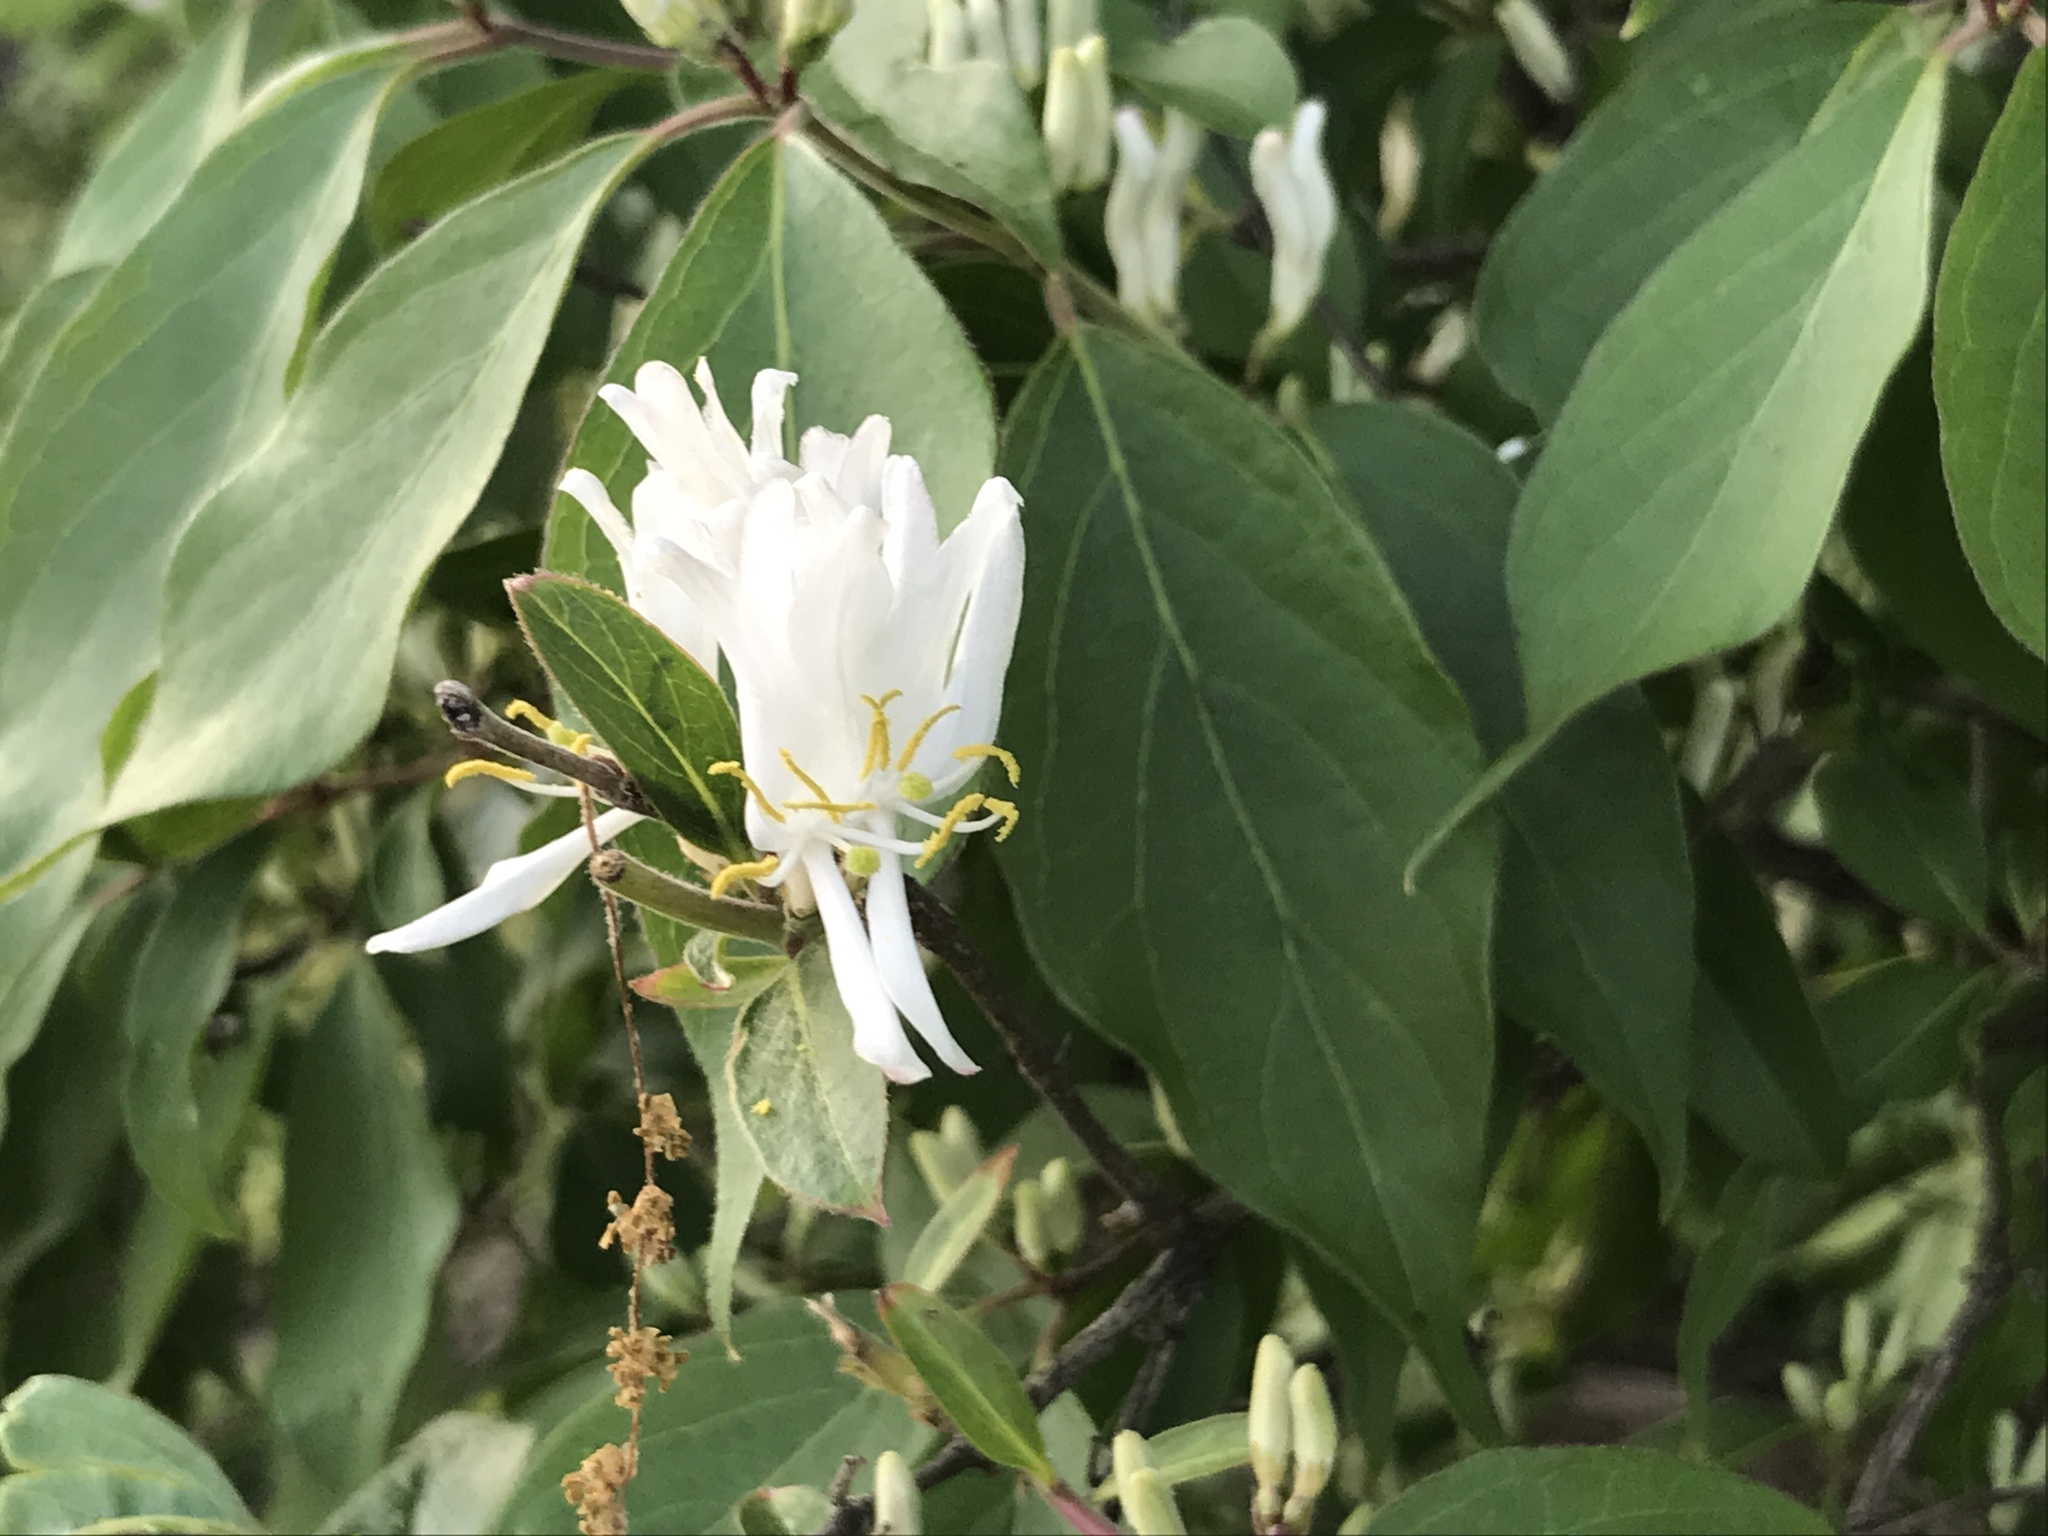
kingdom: Plantae
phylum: Tracheophyta
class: Magnoliopsida
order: Dipsacales
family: Caprifoliaceae
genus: Lonicera
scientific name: Lonicera maackii
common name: Amur honeysuckle
